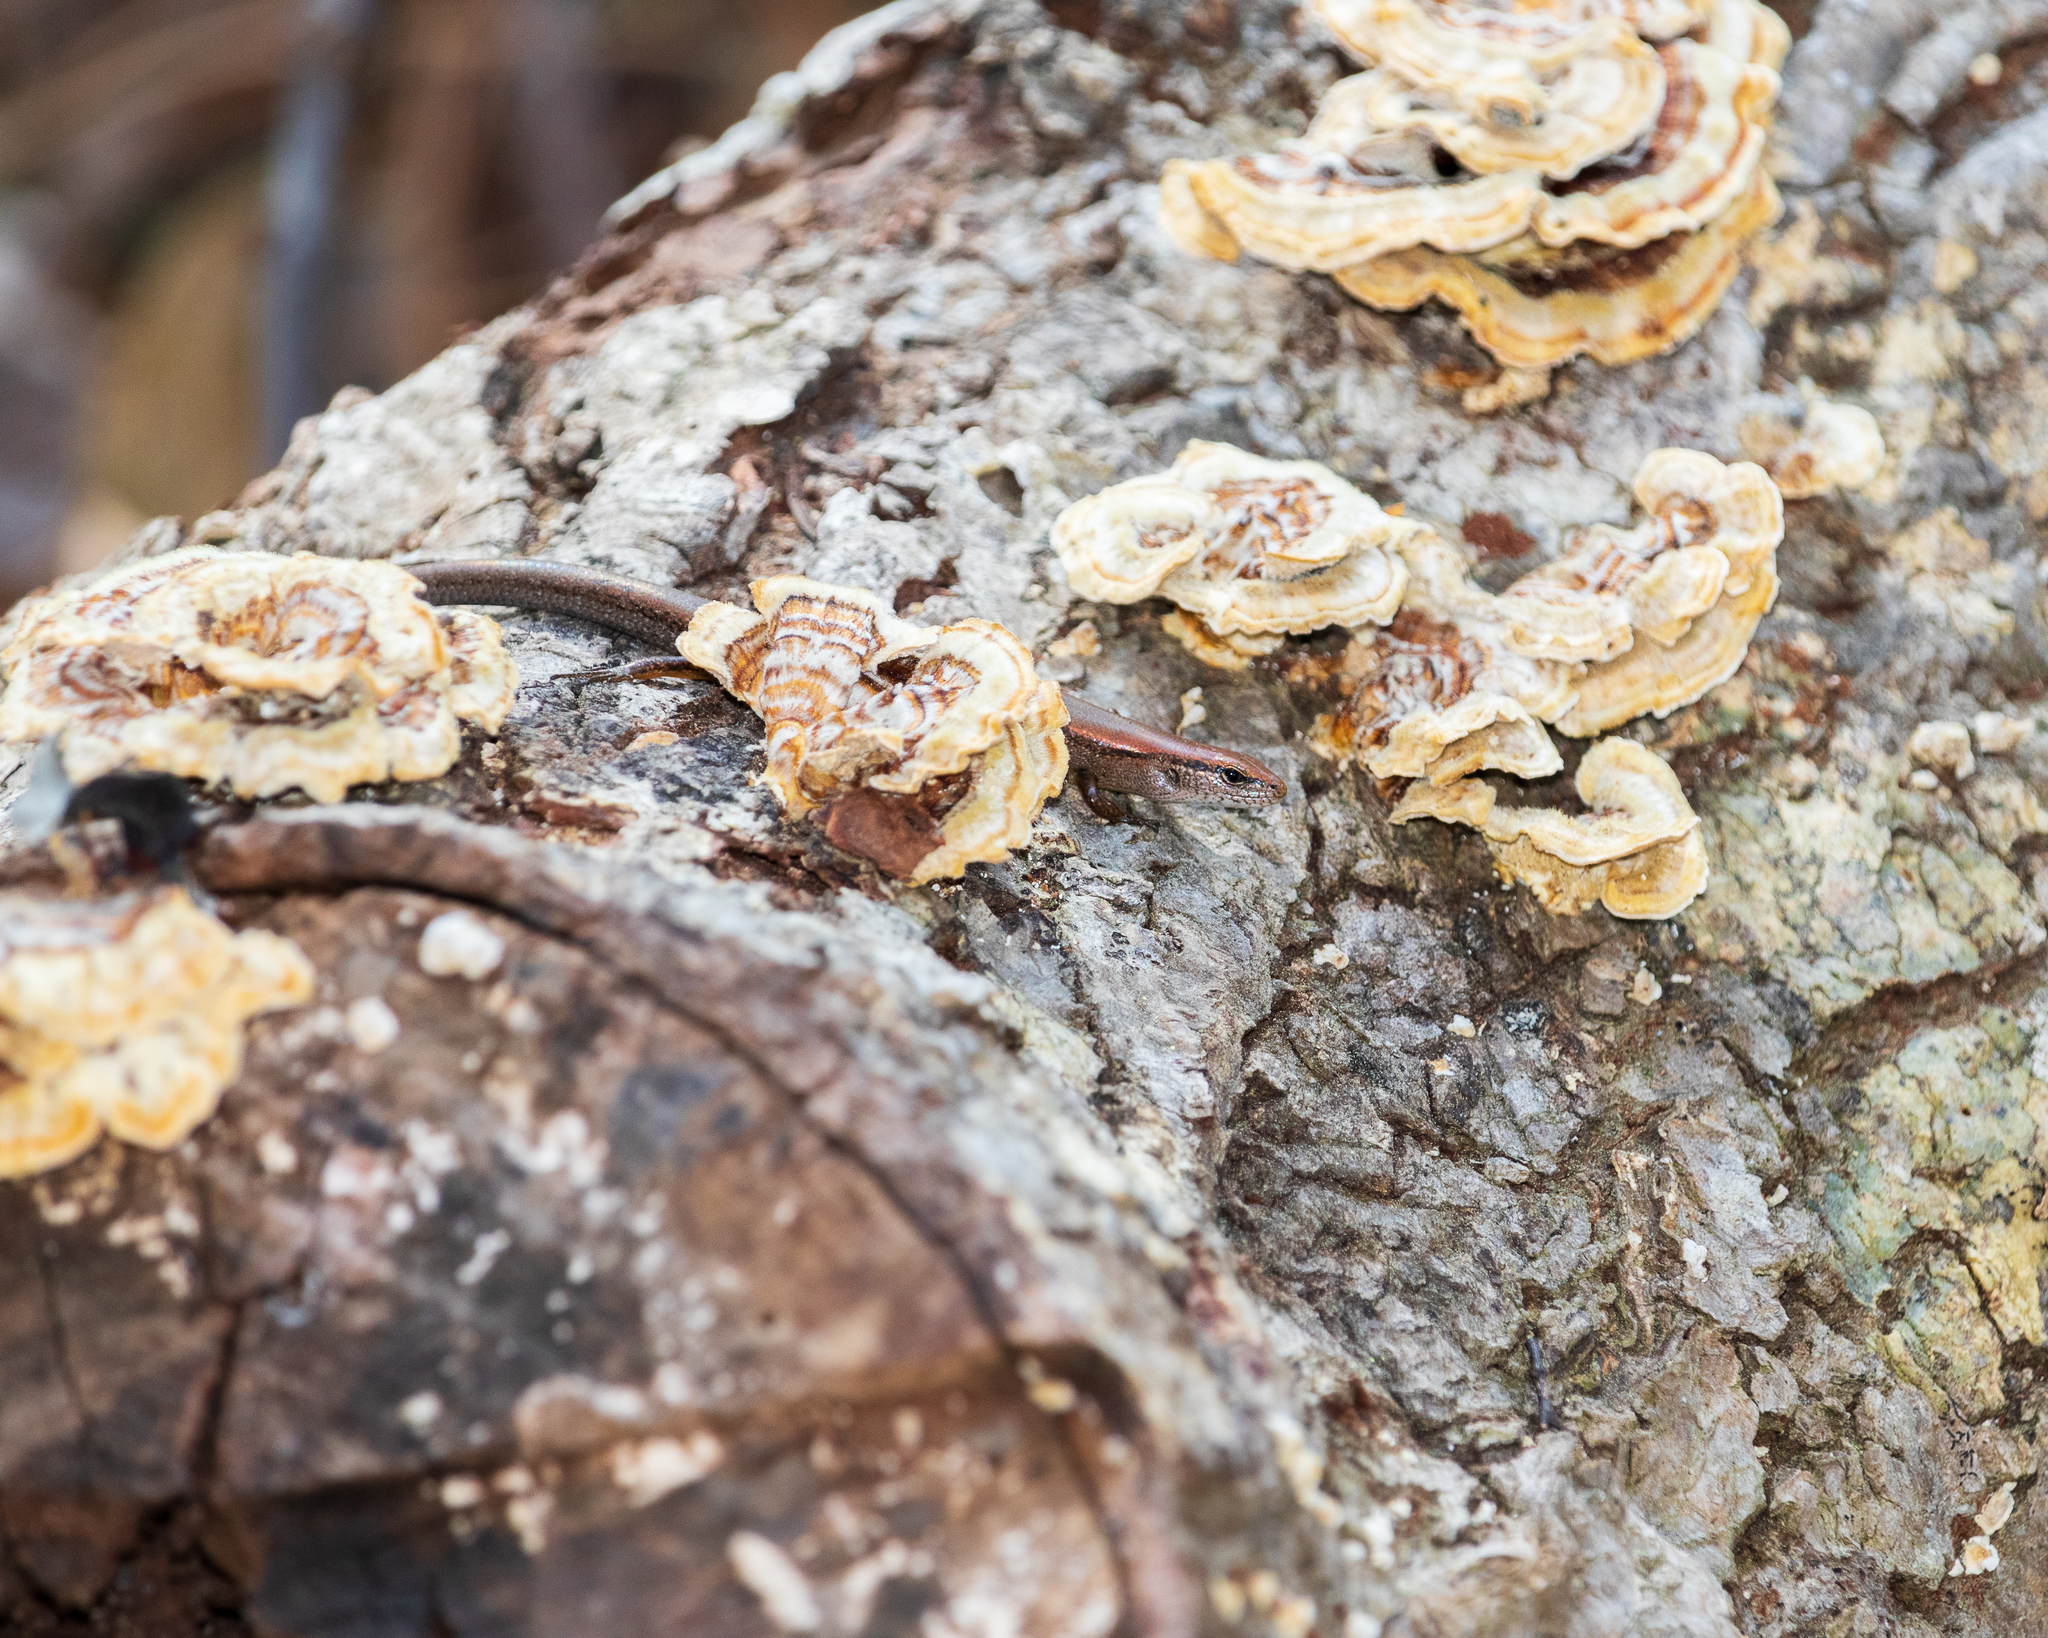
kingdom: Animalia
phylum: Chordata
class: Squamata
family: Scincidae
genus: Scincella
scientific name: Scincella lateralis
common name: Ground skink
